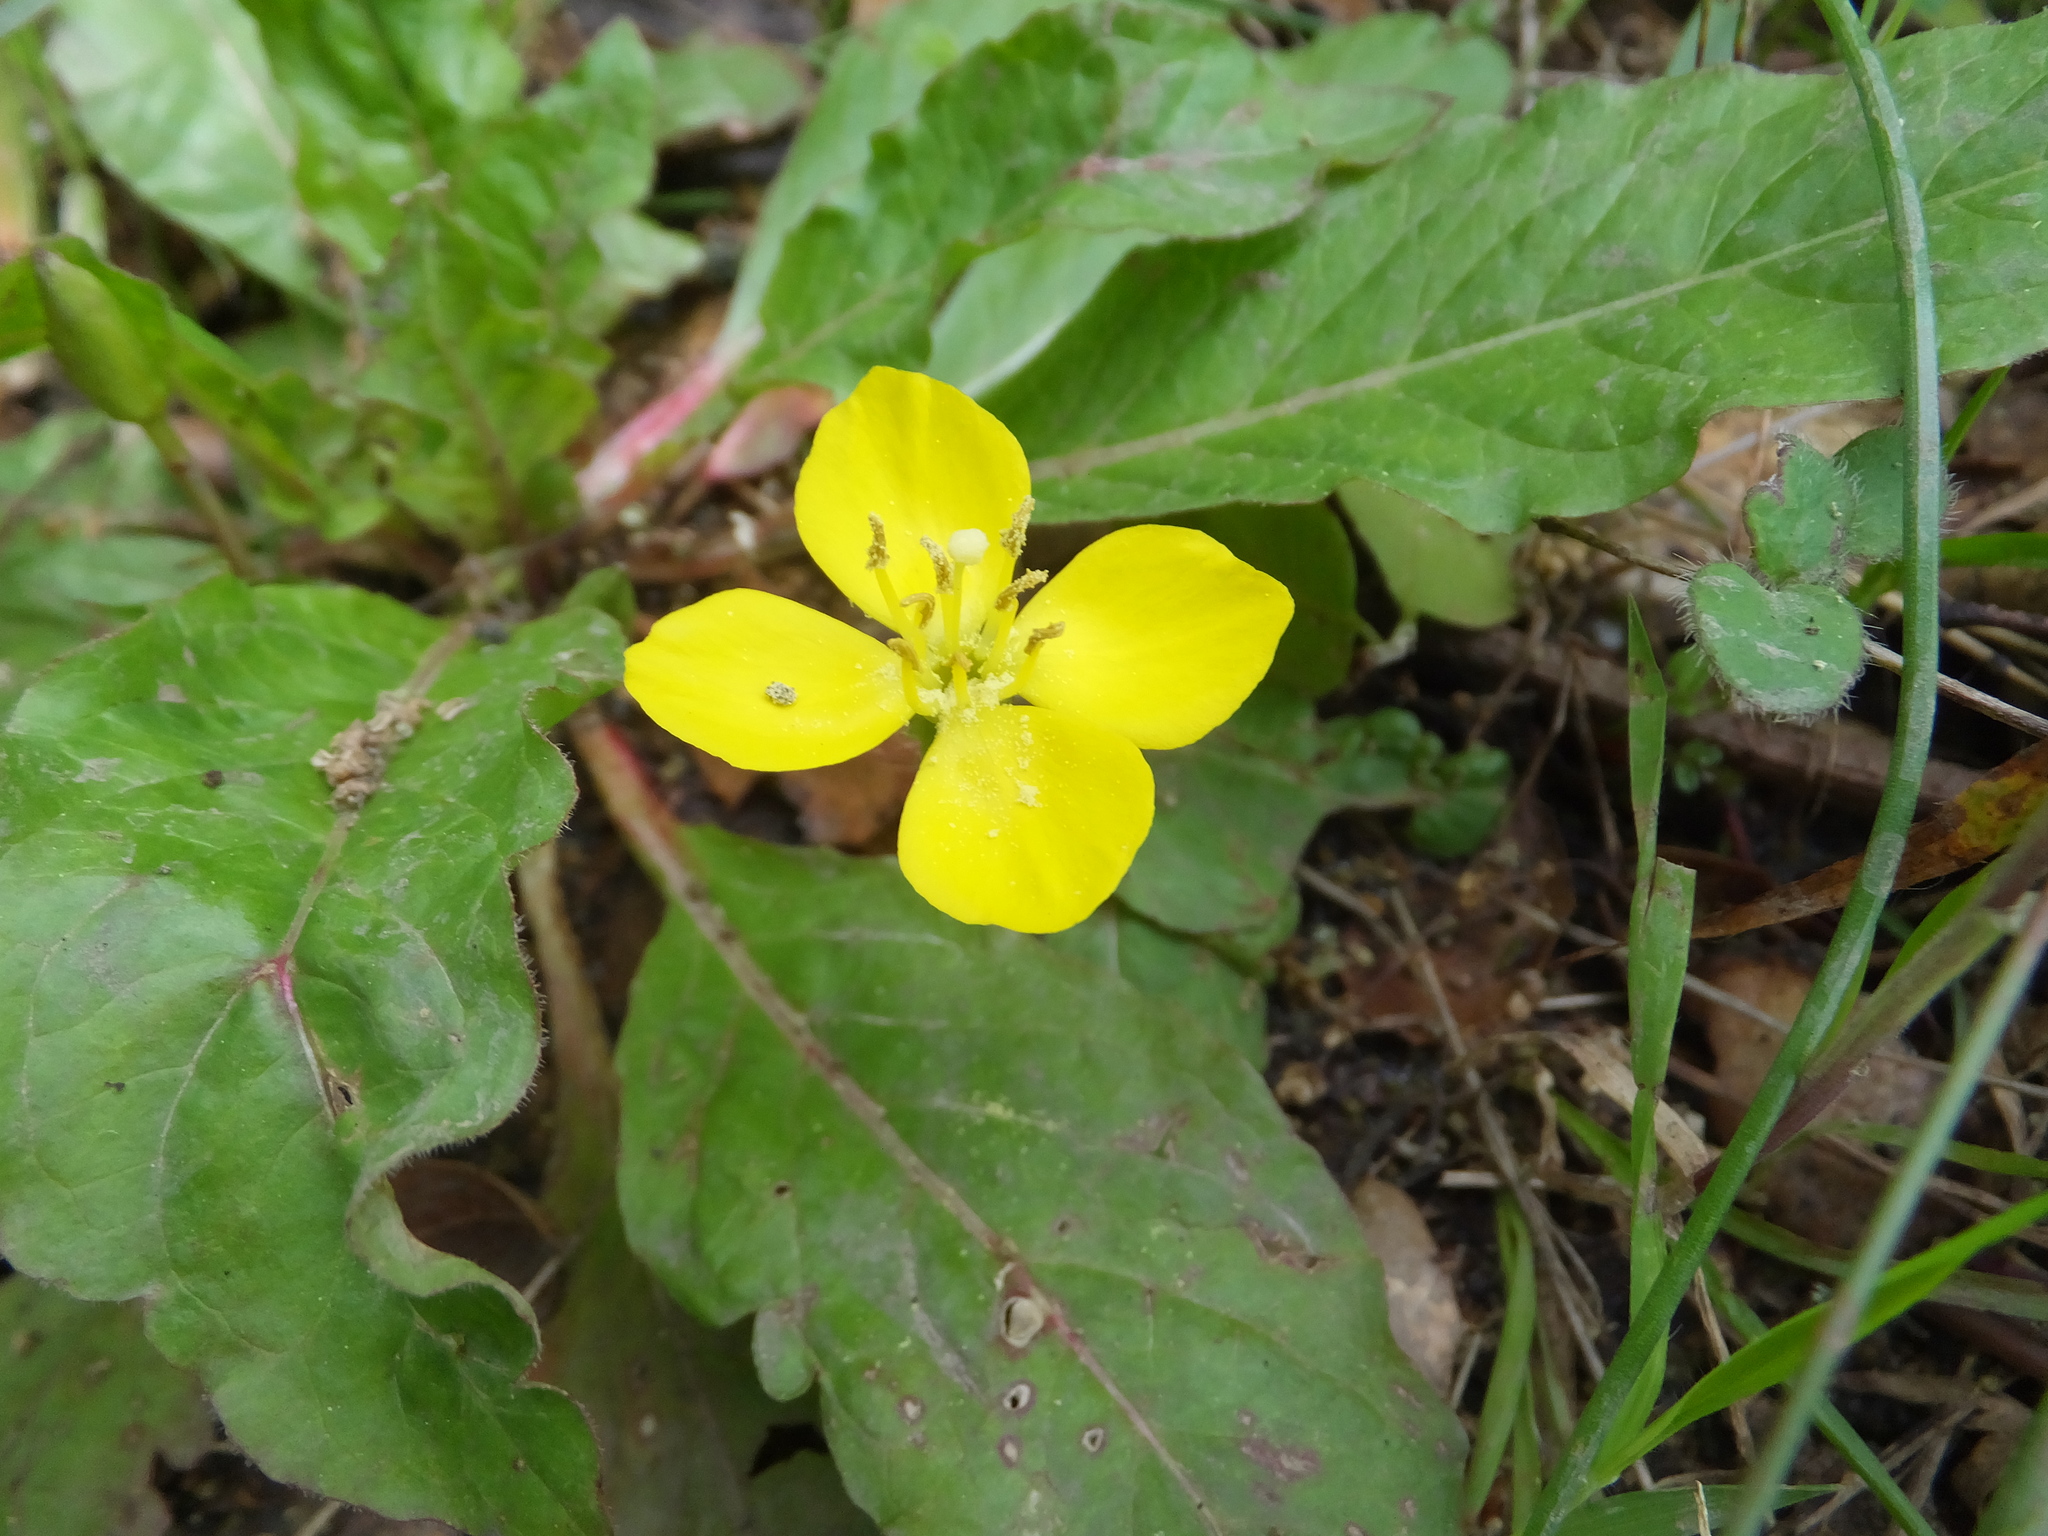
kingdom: Plantae
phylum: Tracheophyta
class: Magnoliopsida
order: Myrtales
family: Onagraceae
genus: Taraxia
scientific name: Taraxia ovata
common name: Goldeneggs
